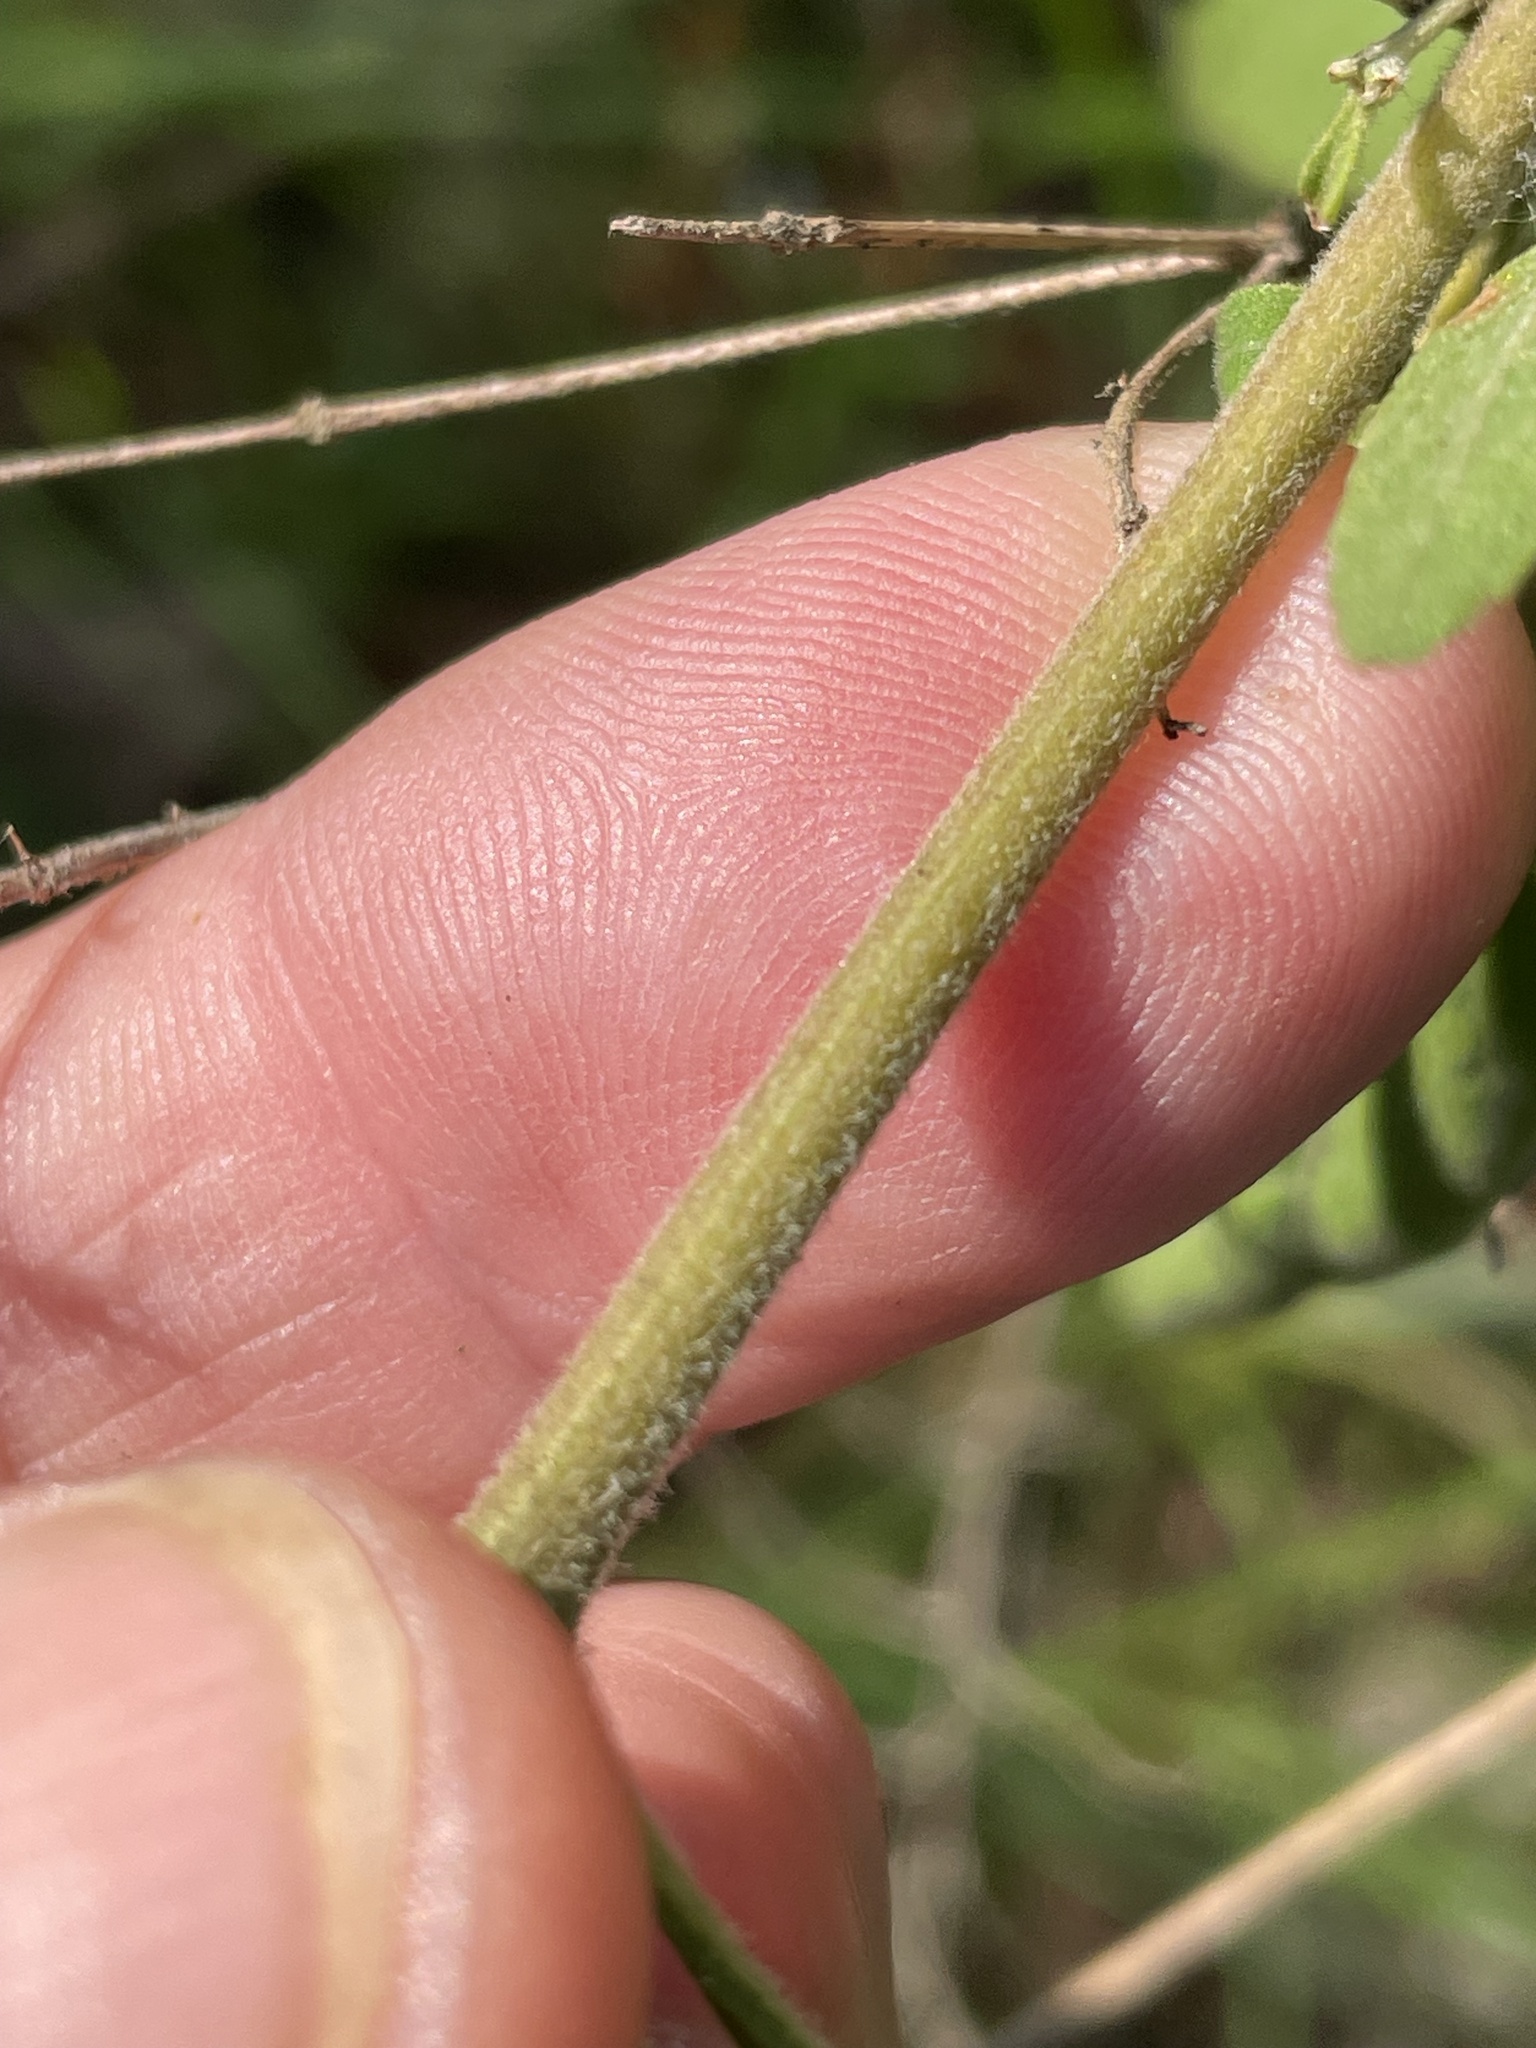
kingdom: Plantae
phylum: Tracheophyta
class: Magnoliopsida
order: Asterales
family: Asteraceae
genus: Eupatorium
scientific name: Eupatorium semiserratum
